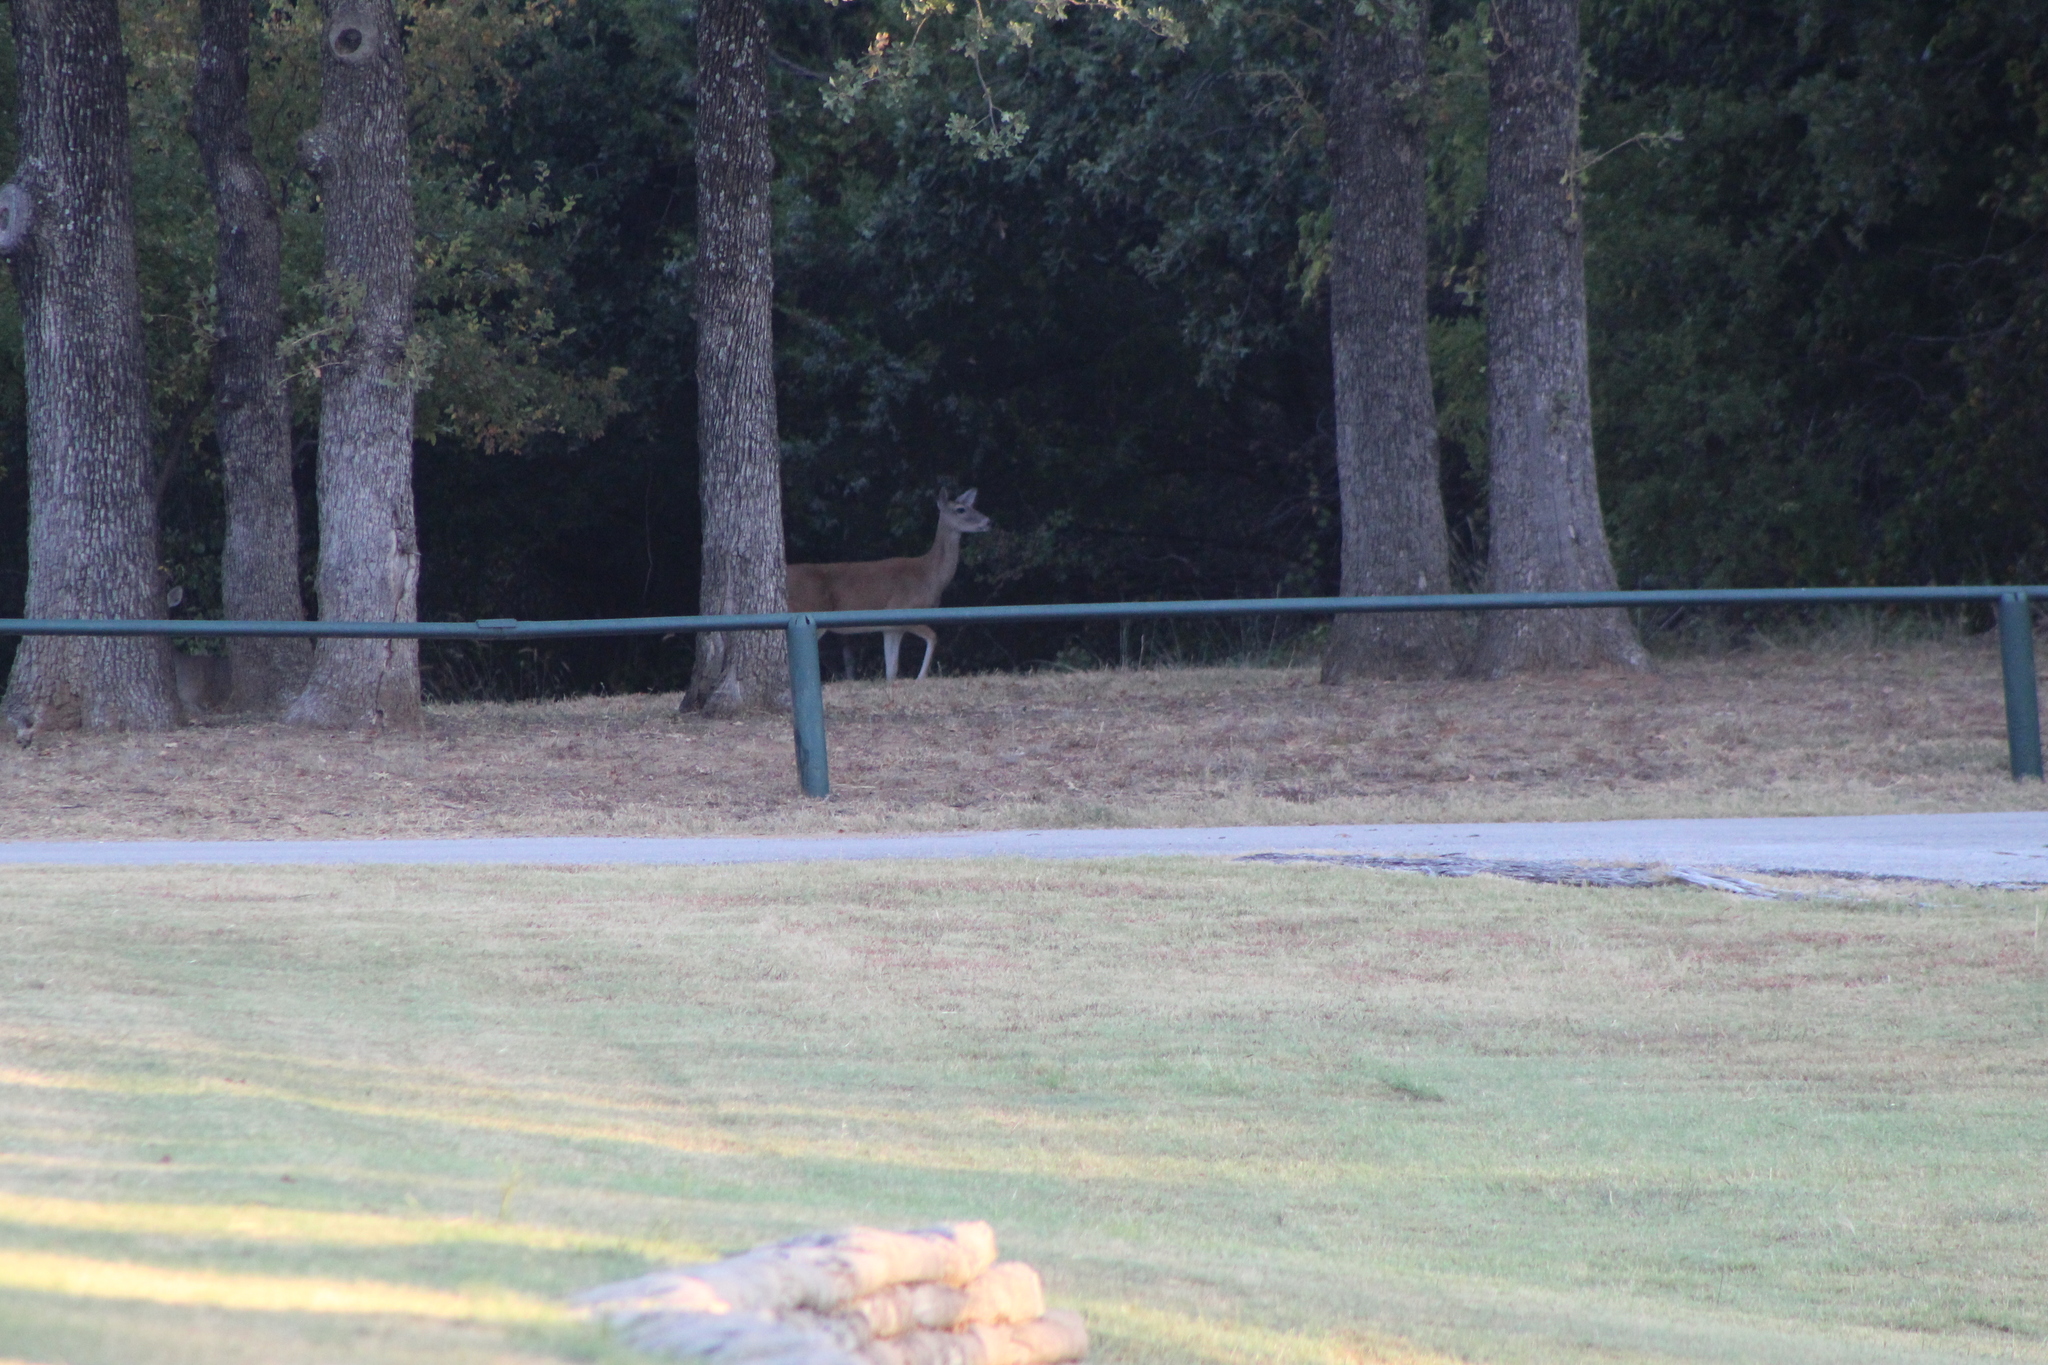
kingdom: Animalia
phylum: Chordata
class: Mammalia
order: Artiodactyla
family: Cervidae
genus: Odocoileus
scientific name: Odocoileus virginianus
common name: White-tailed deer
